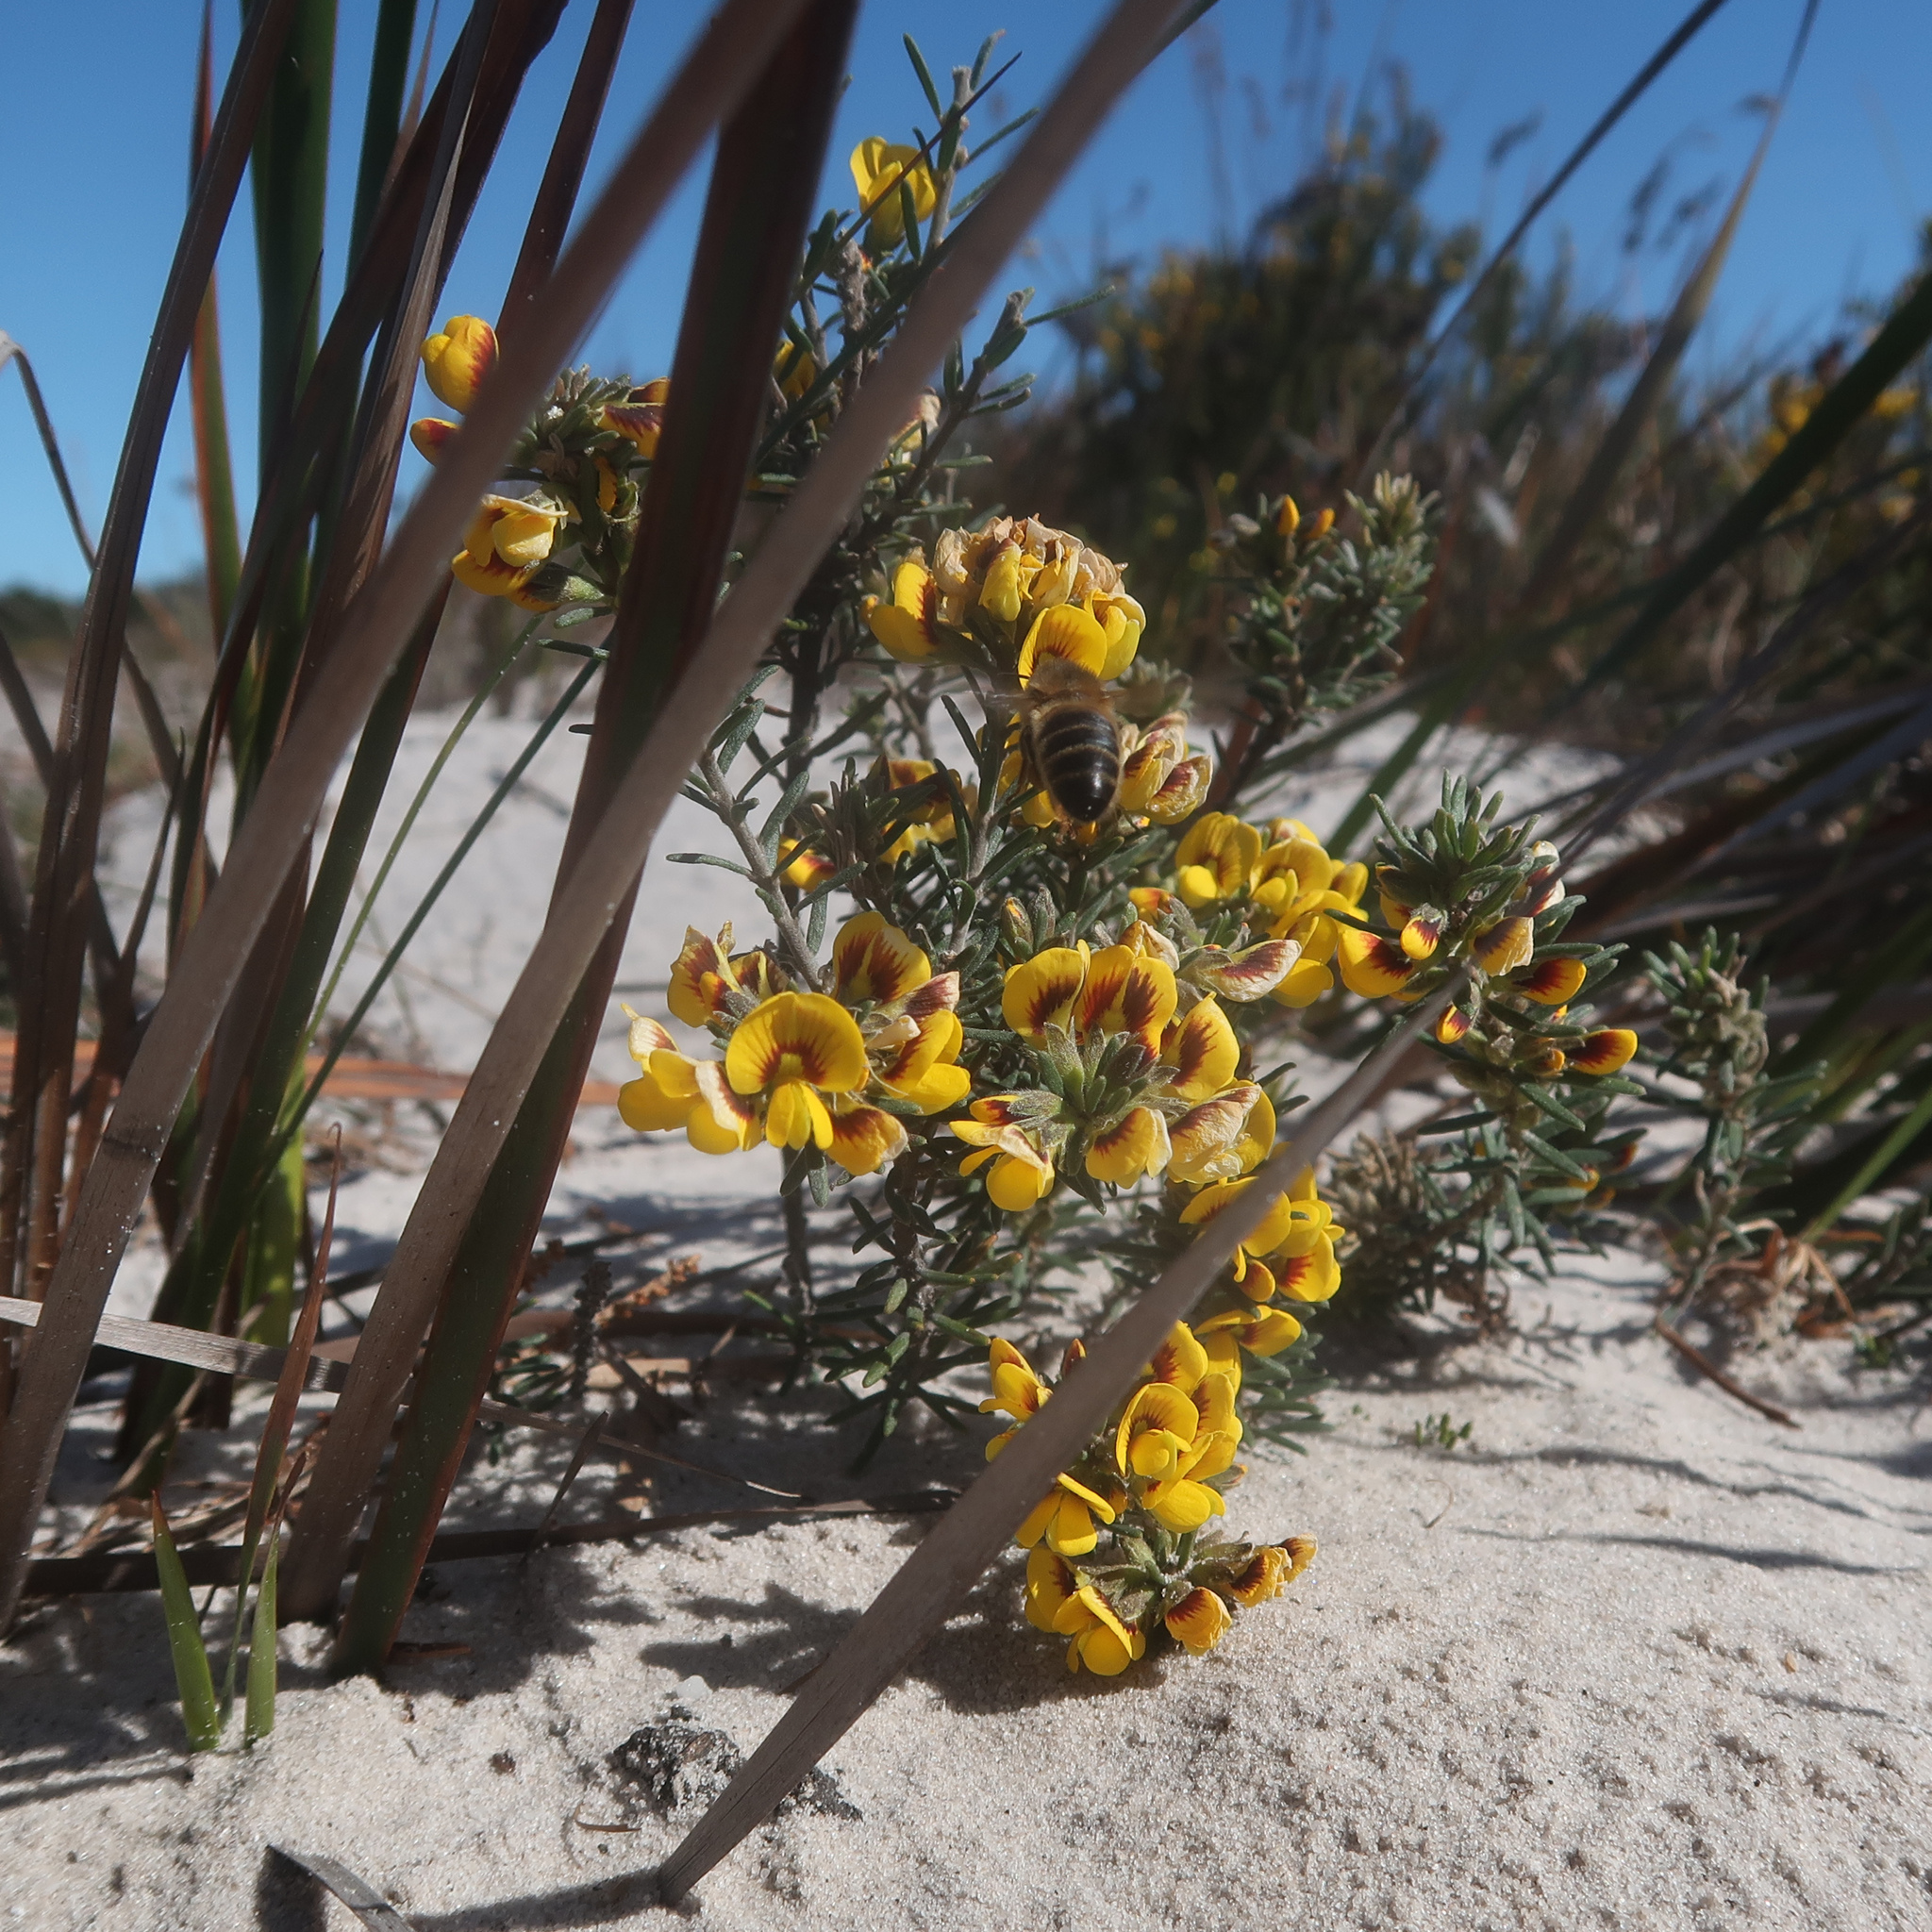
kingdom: Plantae
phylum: Tracheophyta
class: Magnoliopsida
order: Fabales
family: Fabaceae
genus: Aotus
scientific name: Aotus ericoides
